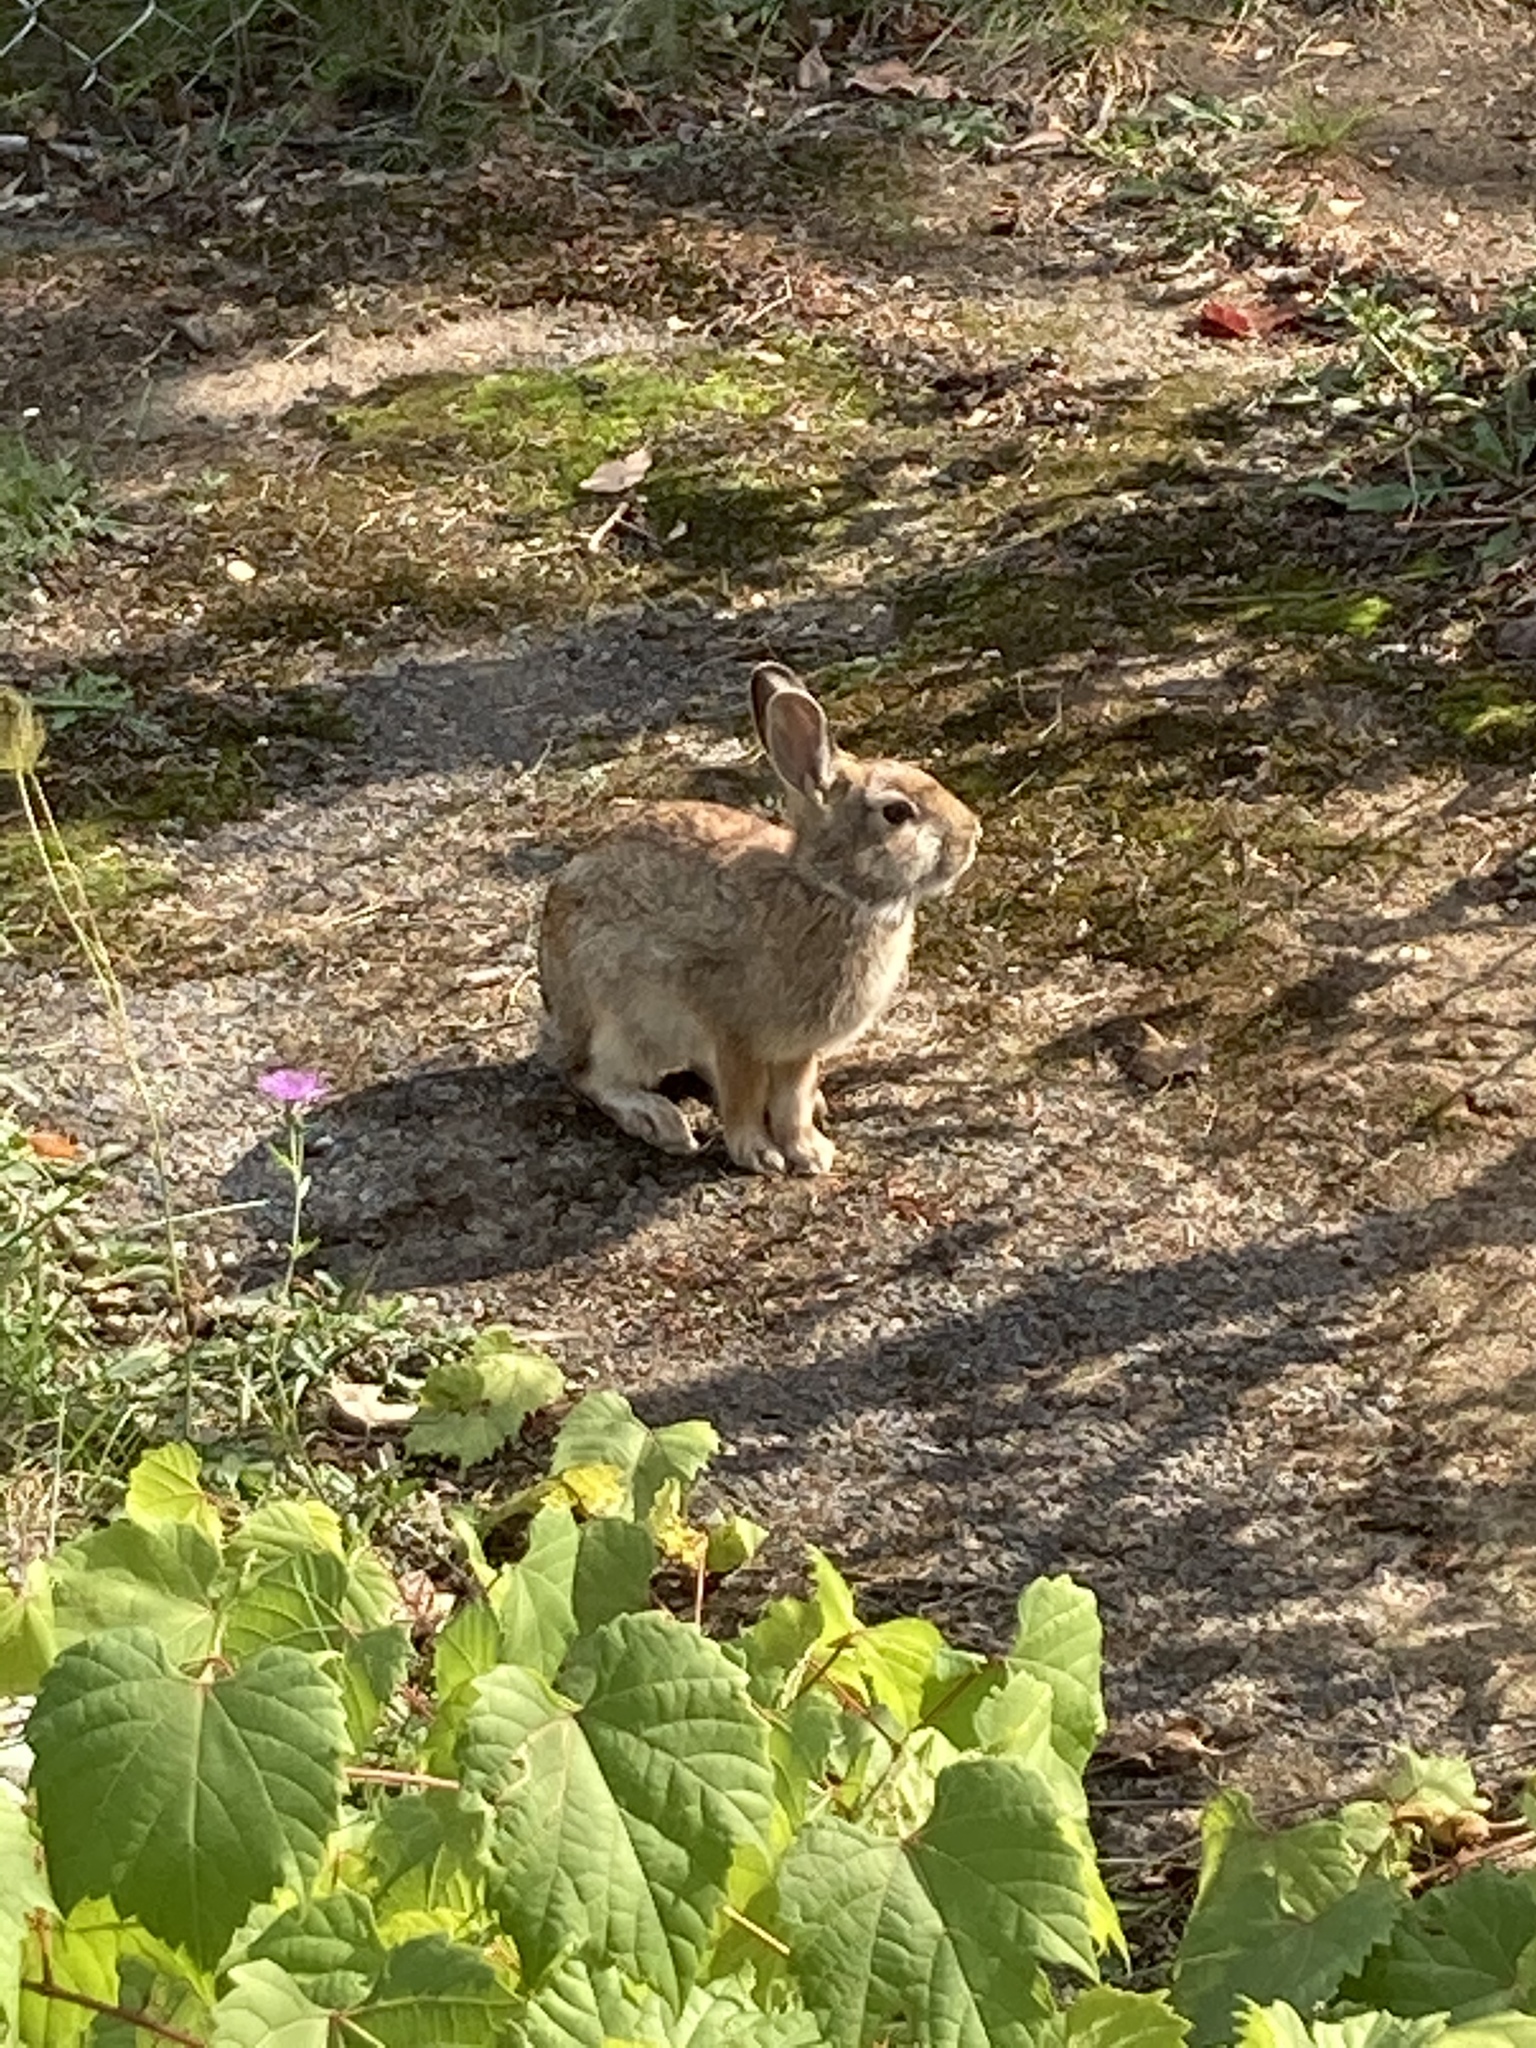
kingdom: Animalia
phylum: Chordata
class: Mammalia
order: Lagomorpha
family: Leporidae
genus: Sylvilagus
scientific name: Sylvilagus floridanus
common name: Eastern cottontail
